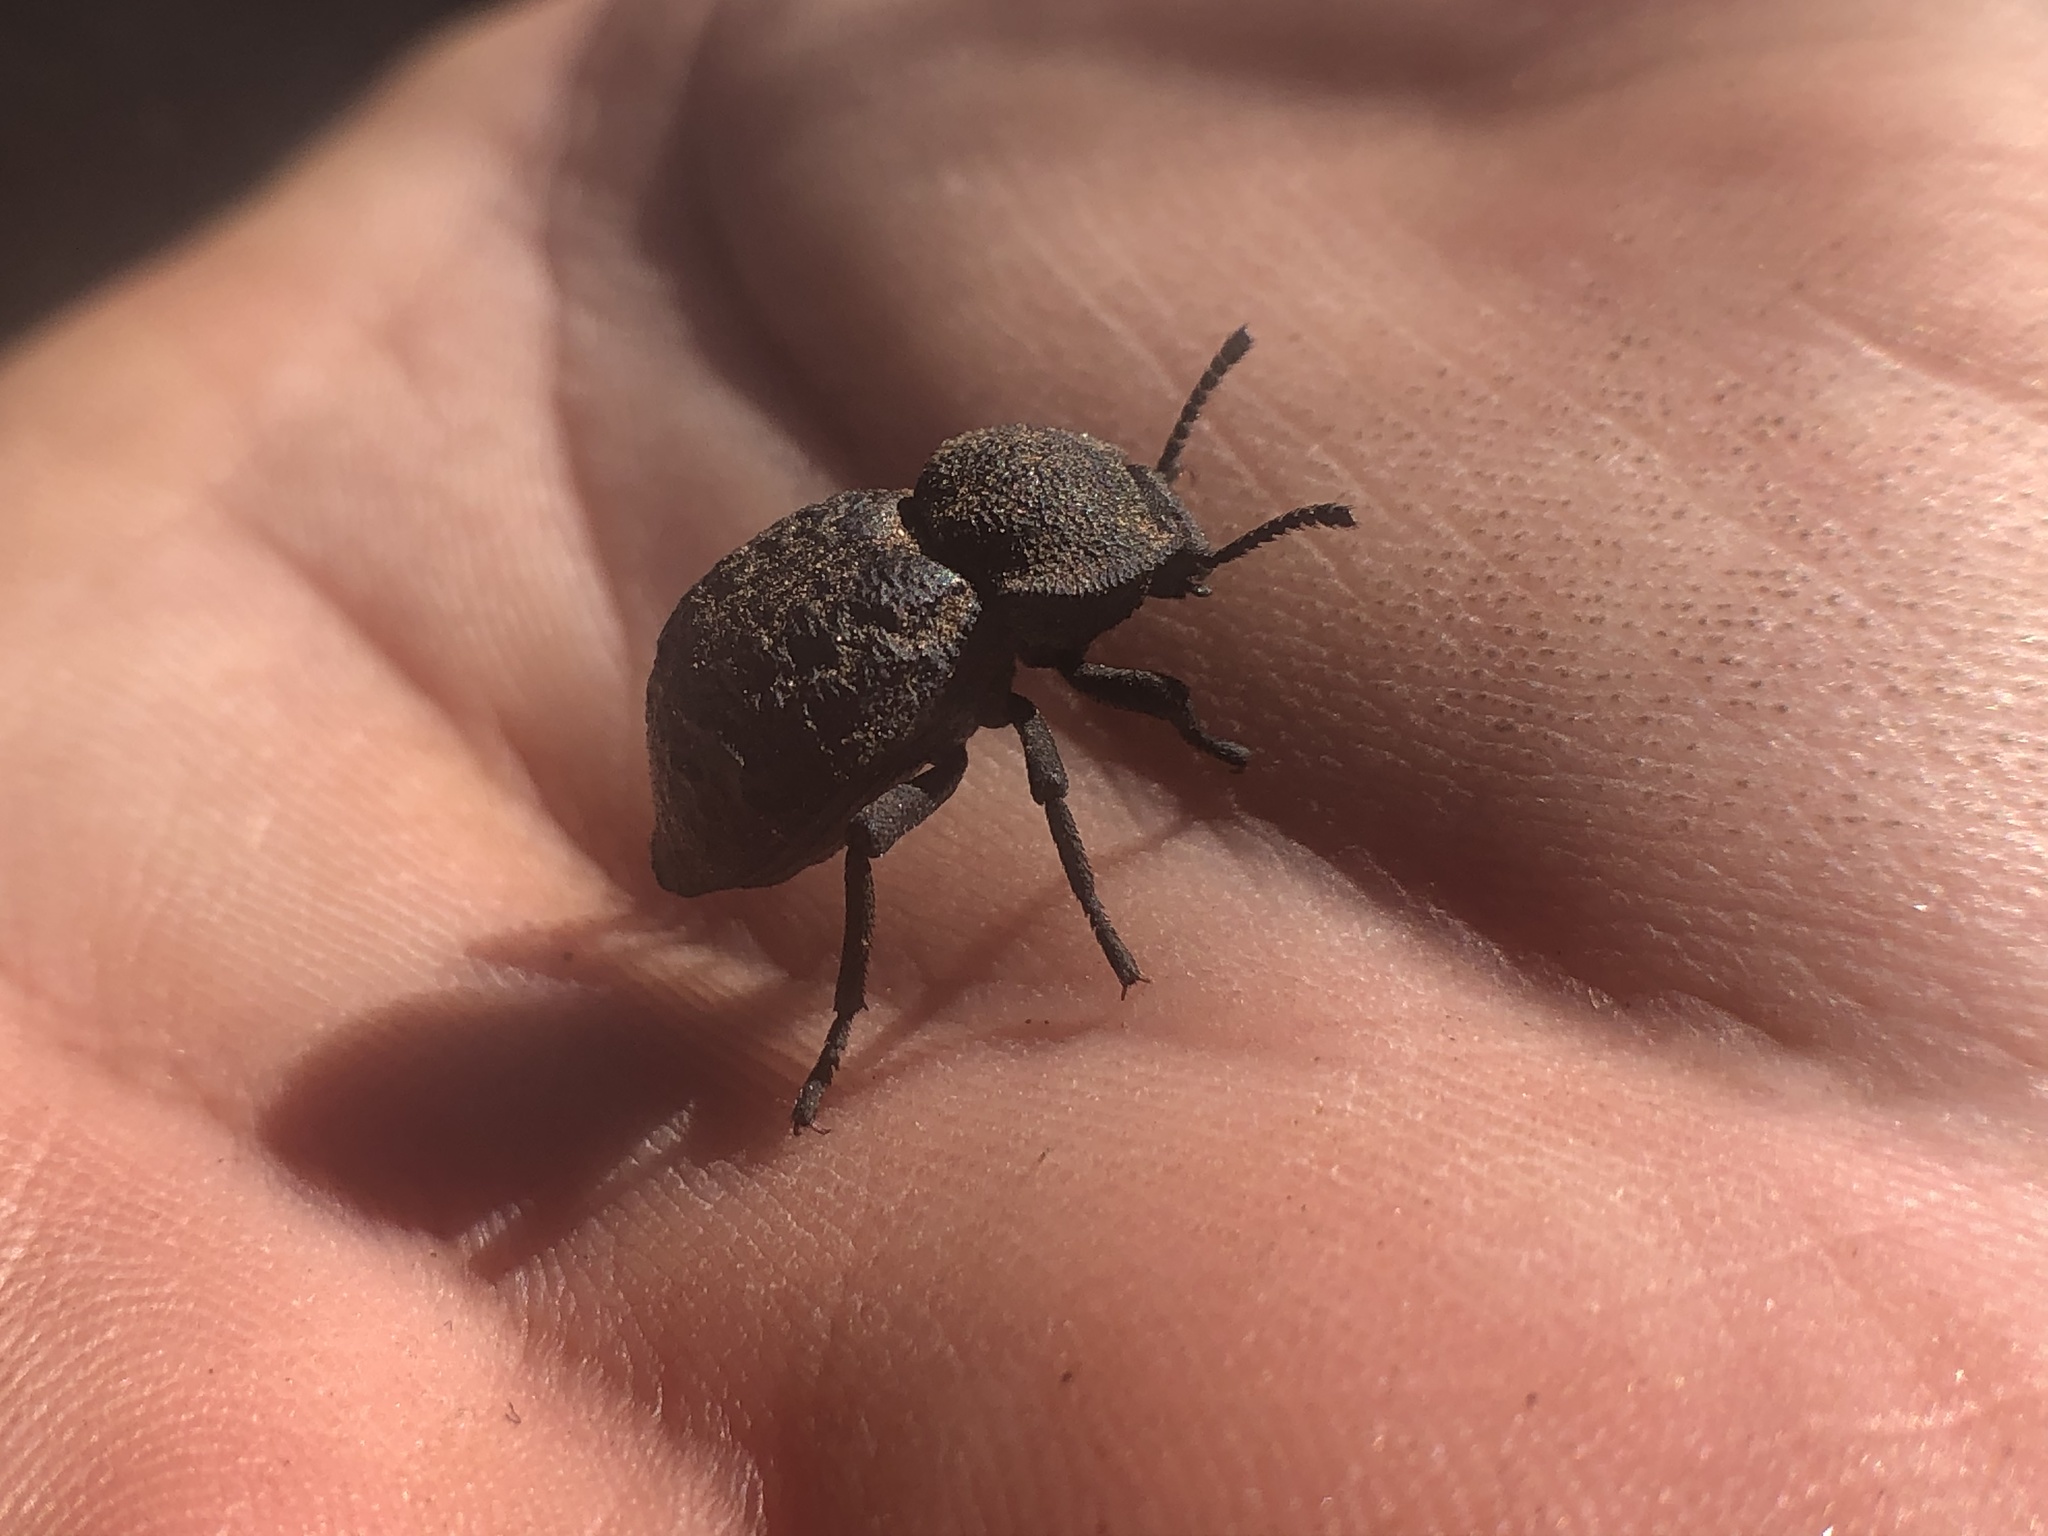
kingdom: Animalia
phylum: Arthropoda
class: Insecta
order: Coleoptera
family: Tenebrionidae
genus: Microschatia
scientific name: Microschatia inaequalis
